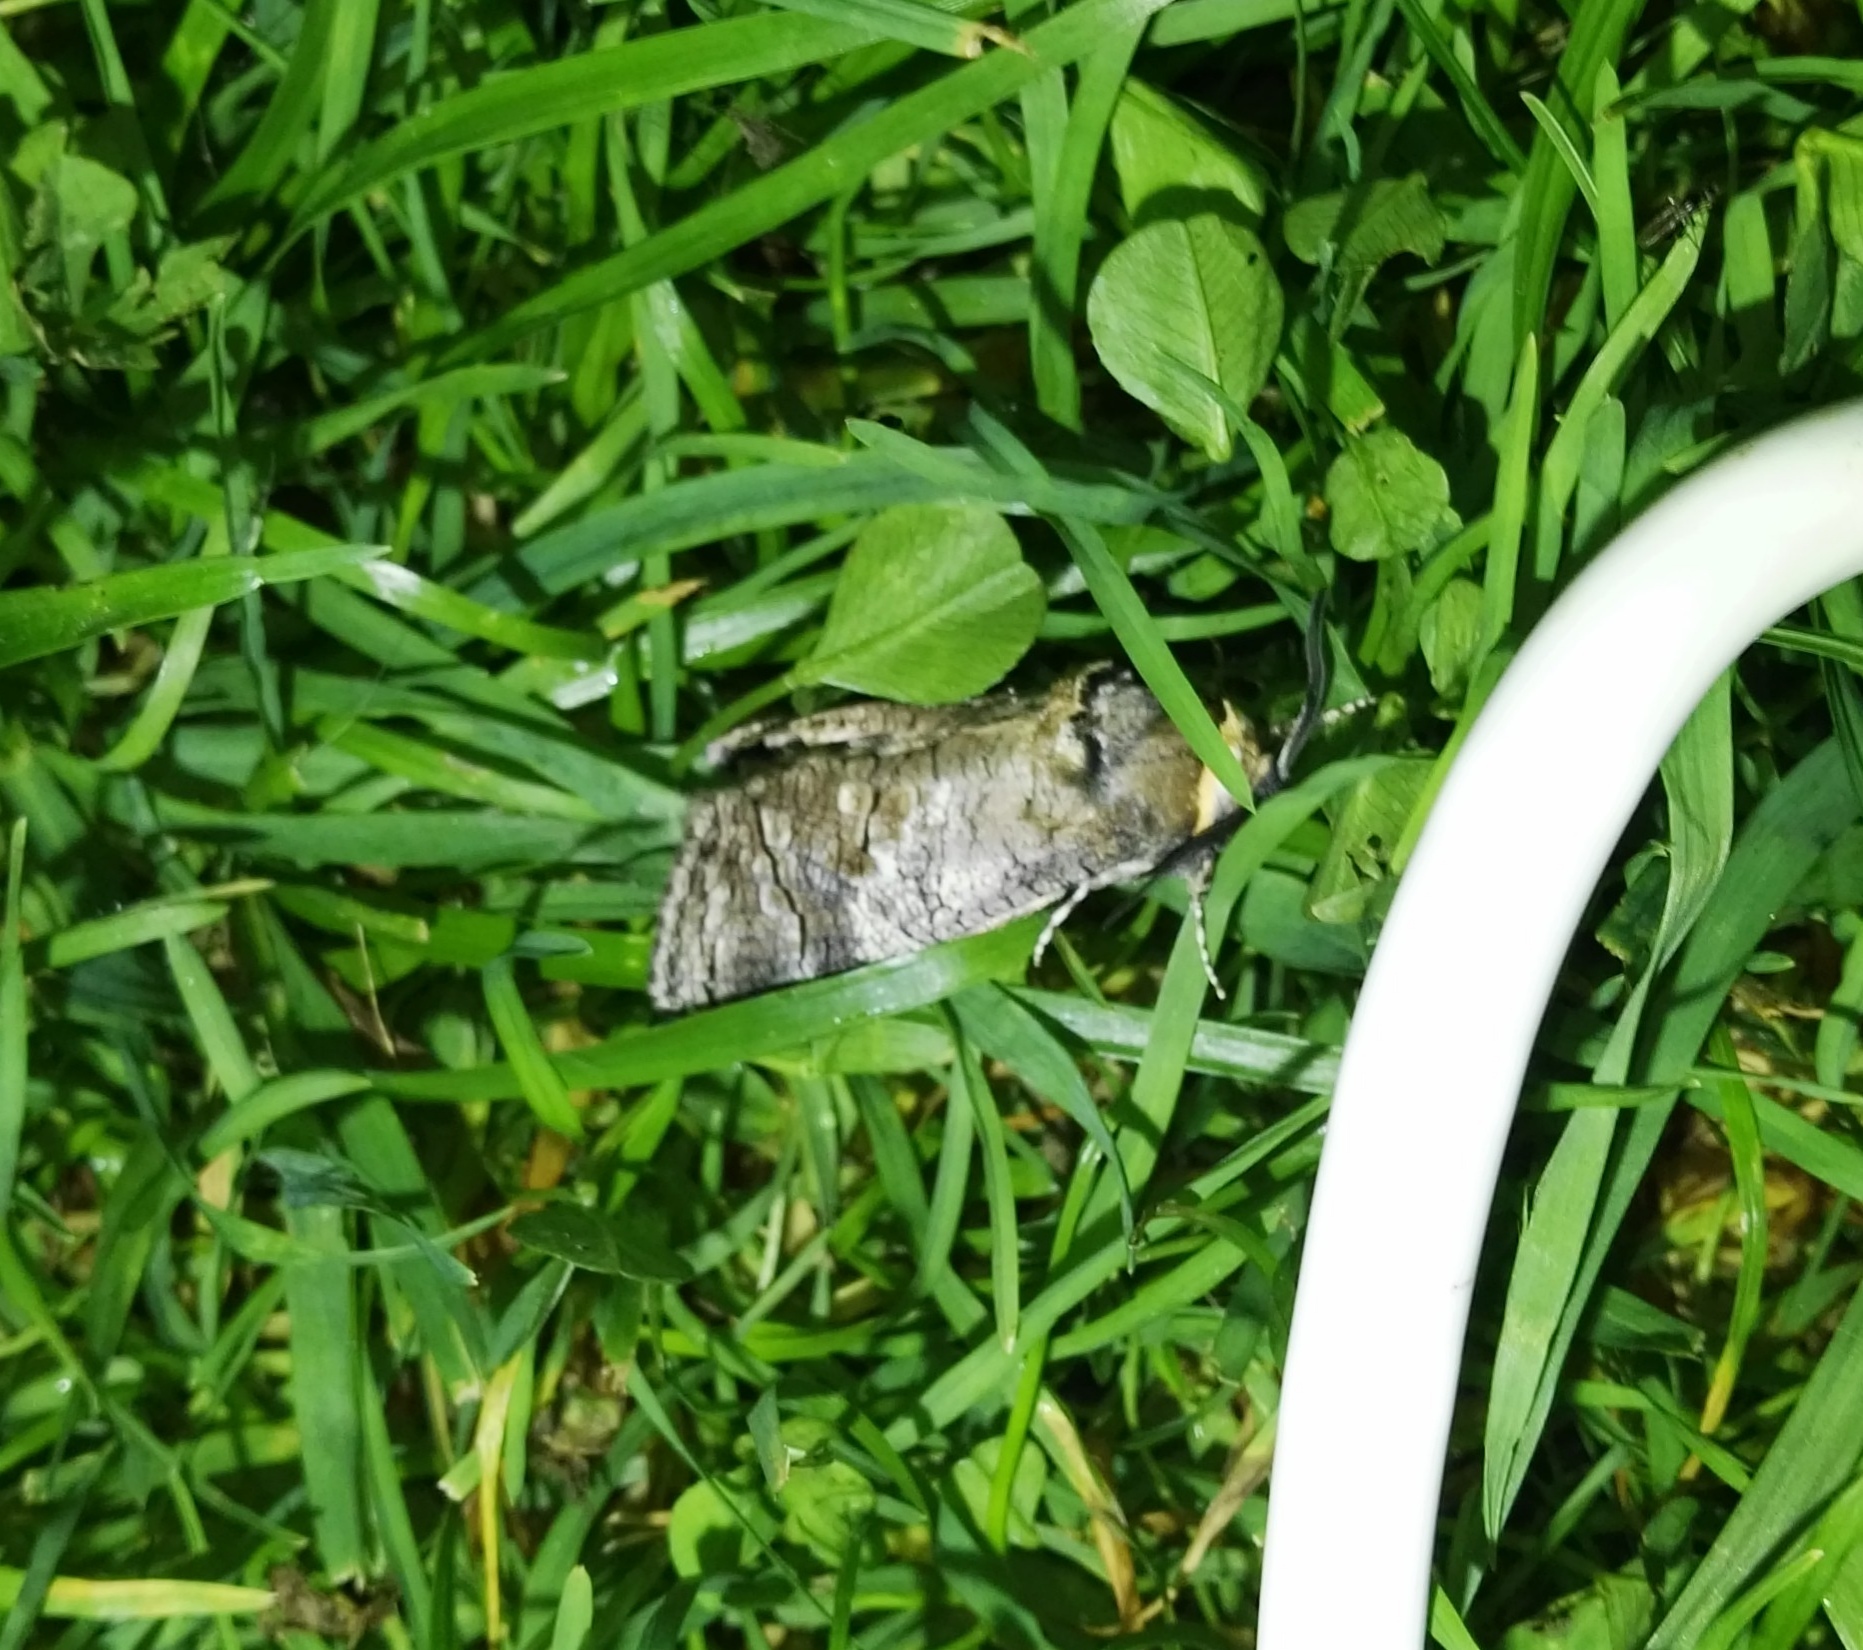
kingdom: Animalia
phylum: Arthropoda
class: Insecta
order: Lepidoptera
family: Cossidae
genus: Cossus
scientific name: Cossus cossus
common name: Goat moth
